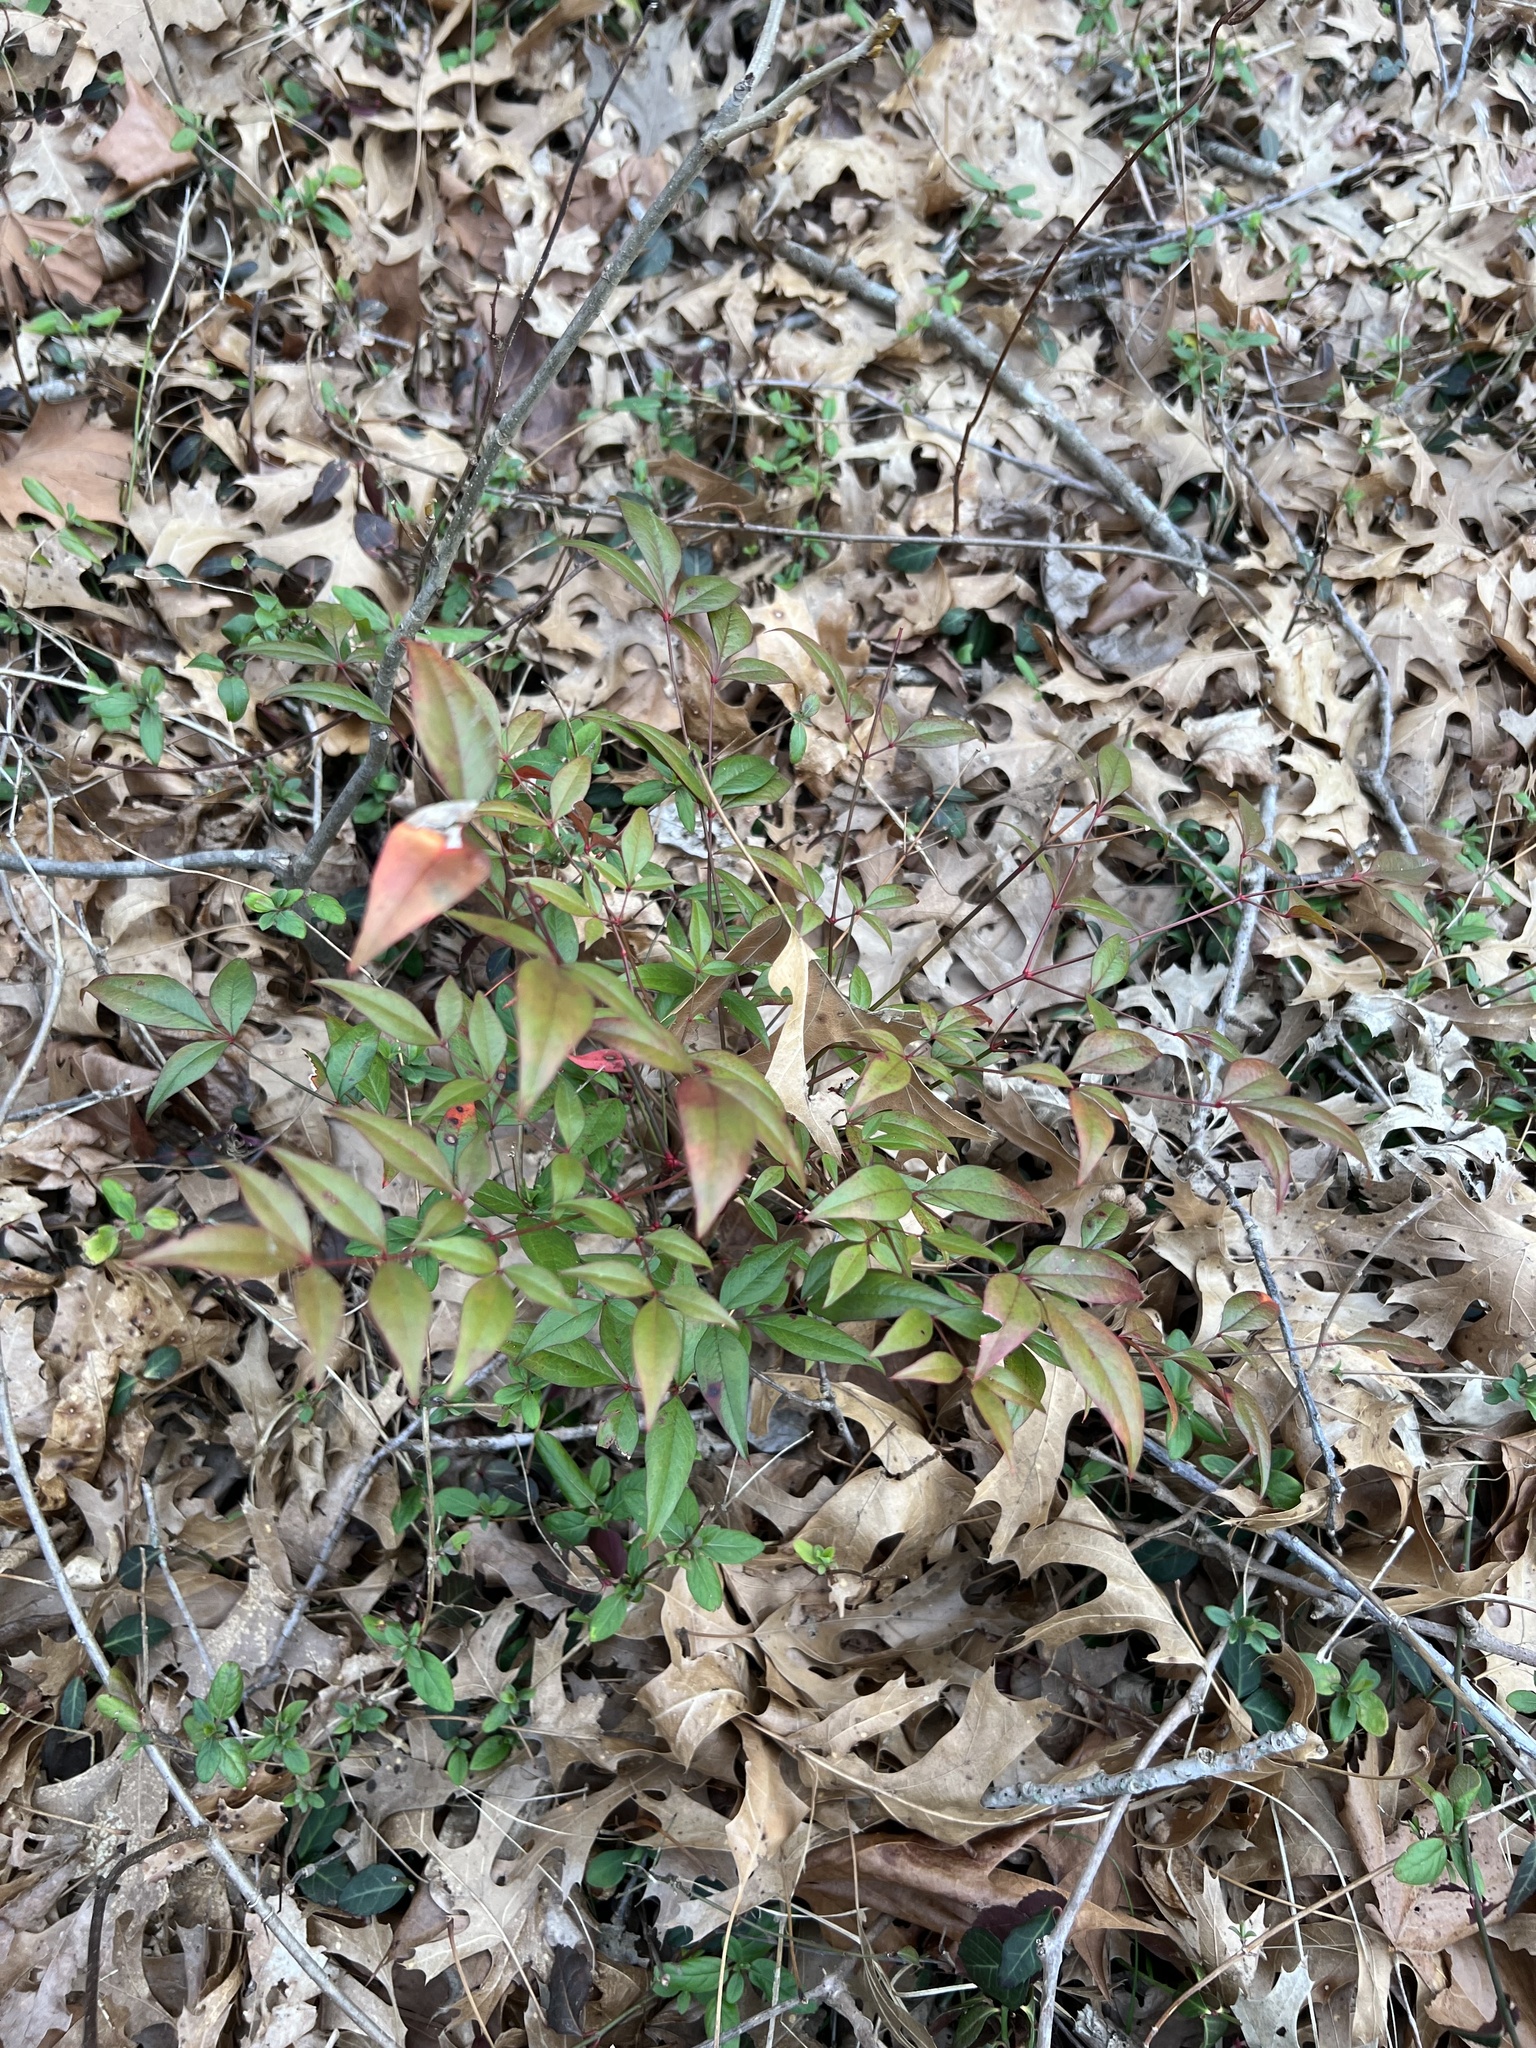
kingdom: Plantae
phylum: Tracheophyta
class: Magnoliopsida
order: Ranunculales
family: Berberidaceae
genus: Nandina
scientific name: Nandina domestica
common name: Sacred bamboo
